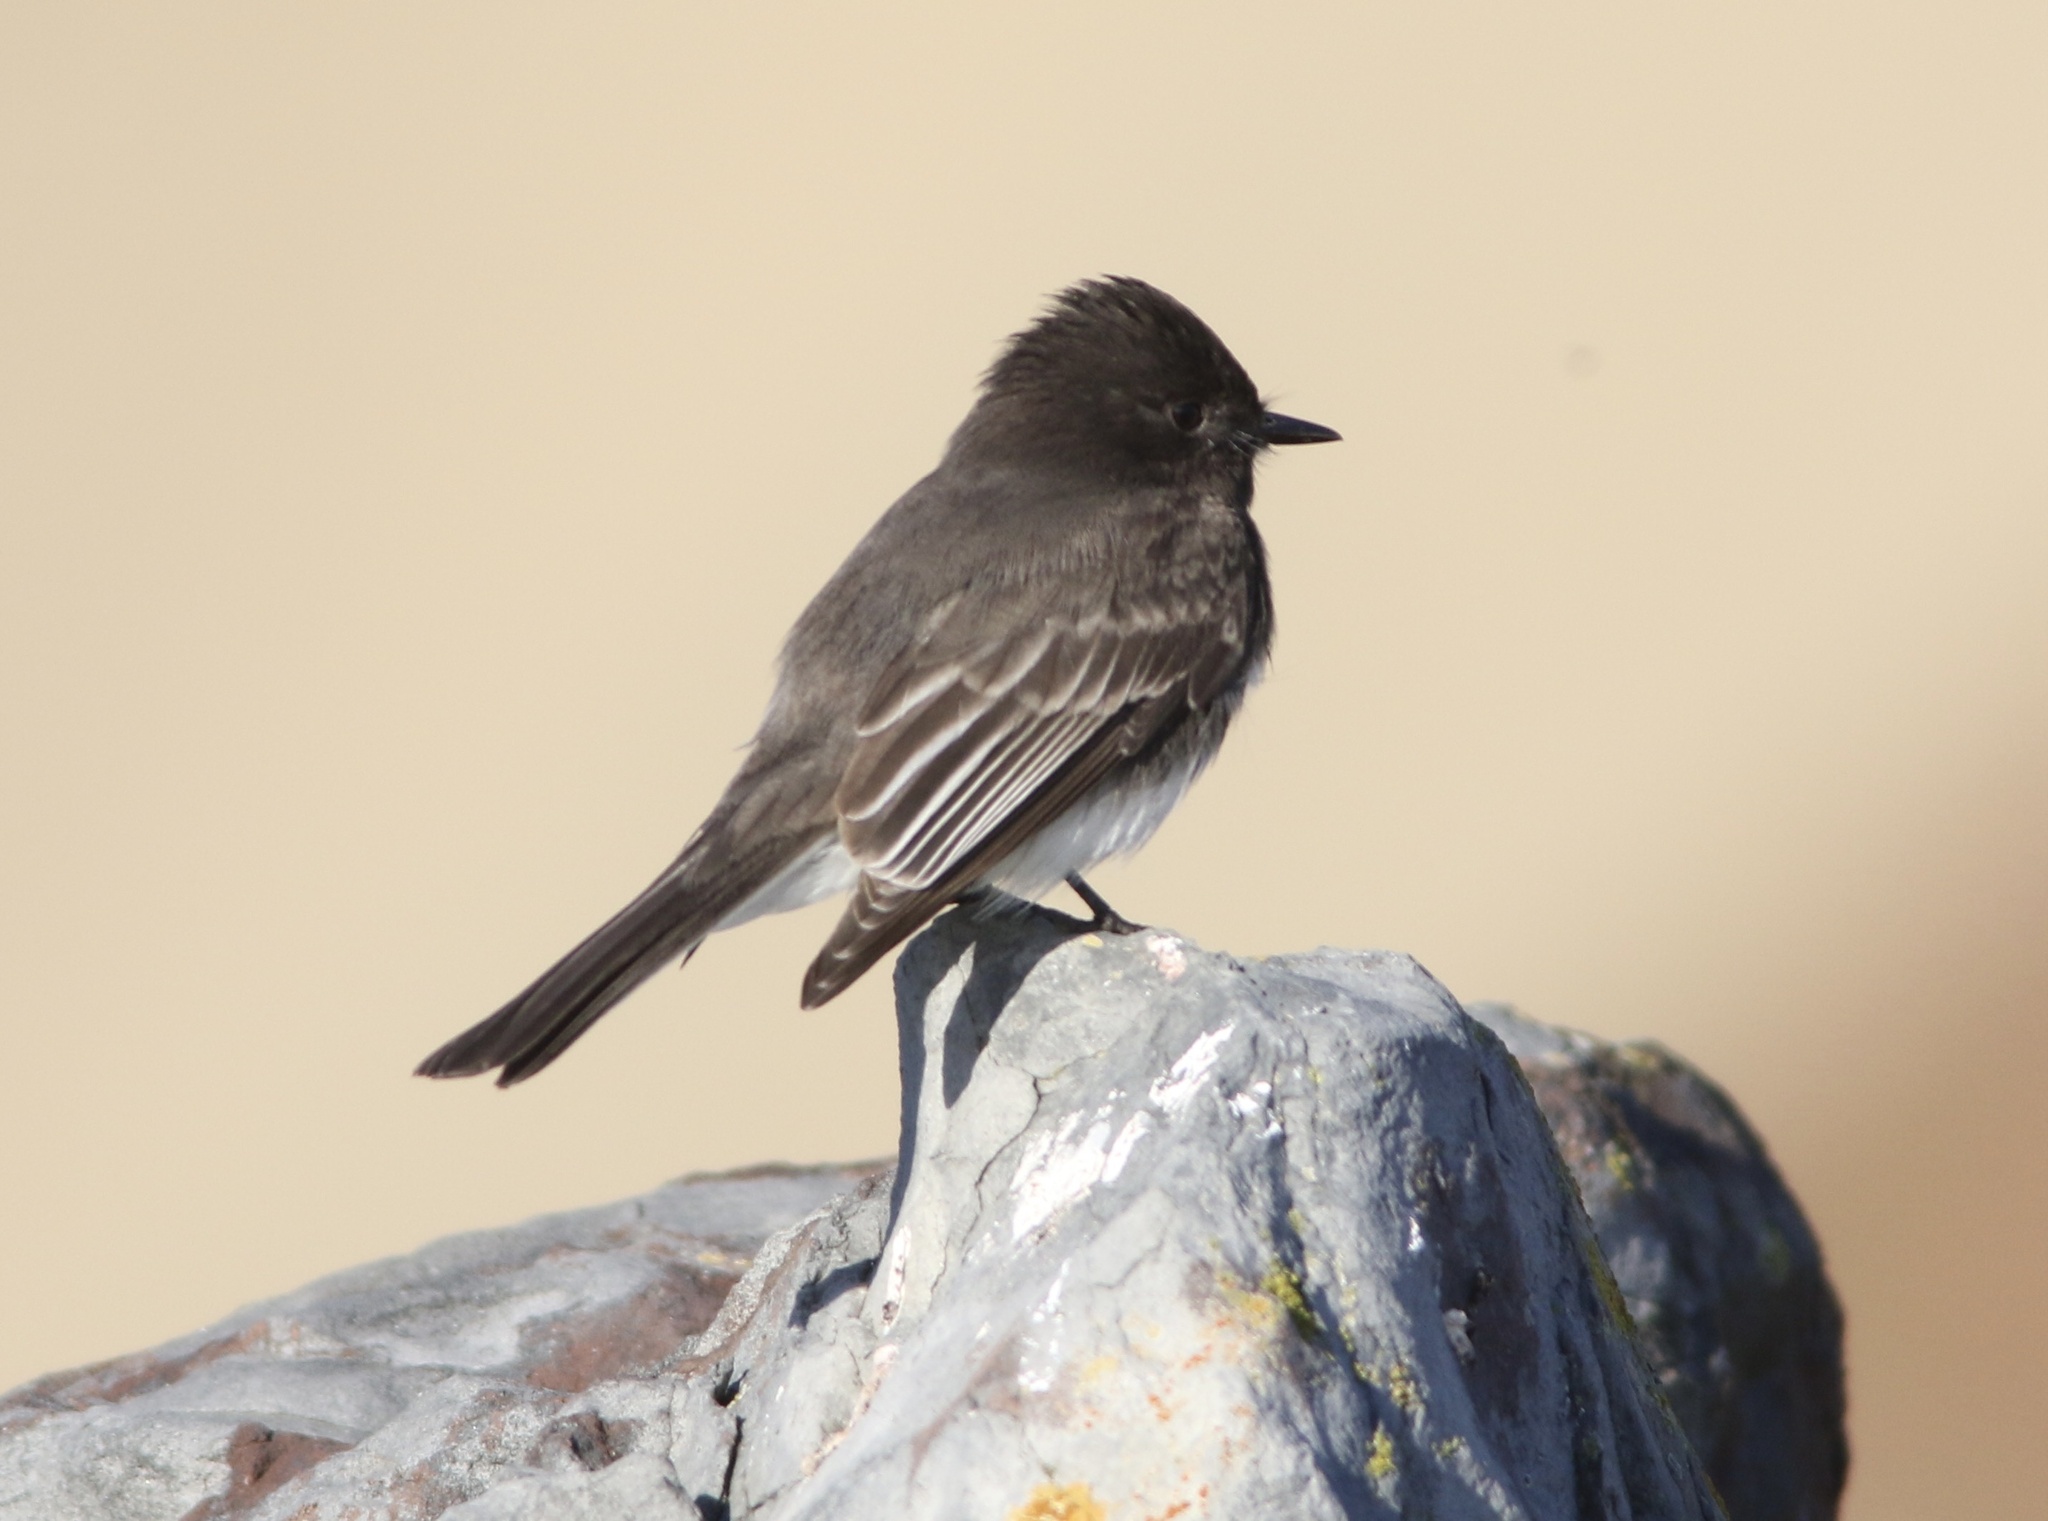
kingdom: Animalia
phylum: Chordata
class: Aves
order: Passeriformes
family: Tyrannidae
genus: Sayornis
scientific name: Sayornis nigricans
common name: Black phoebe
